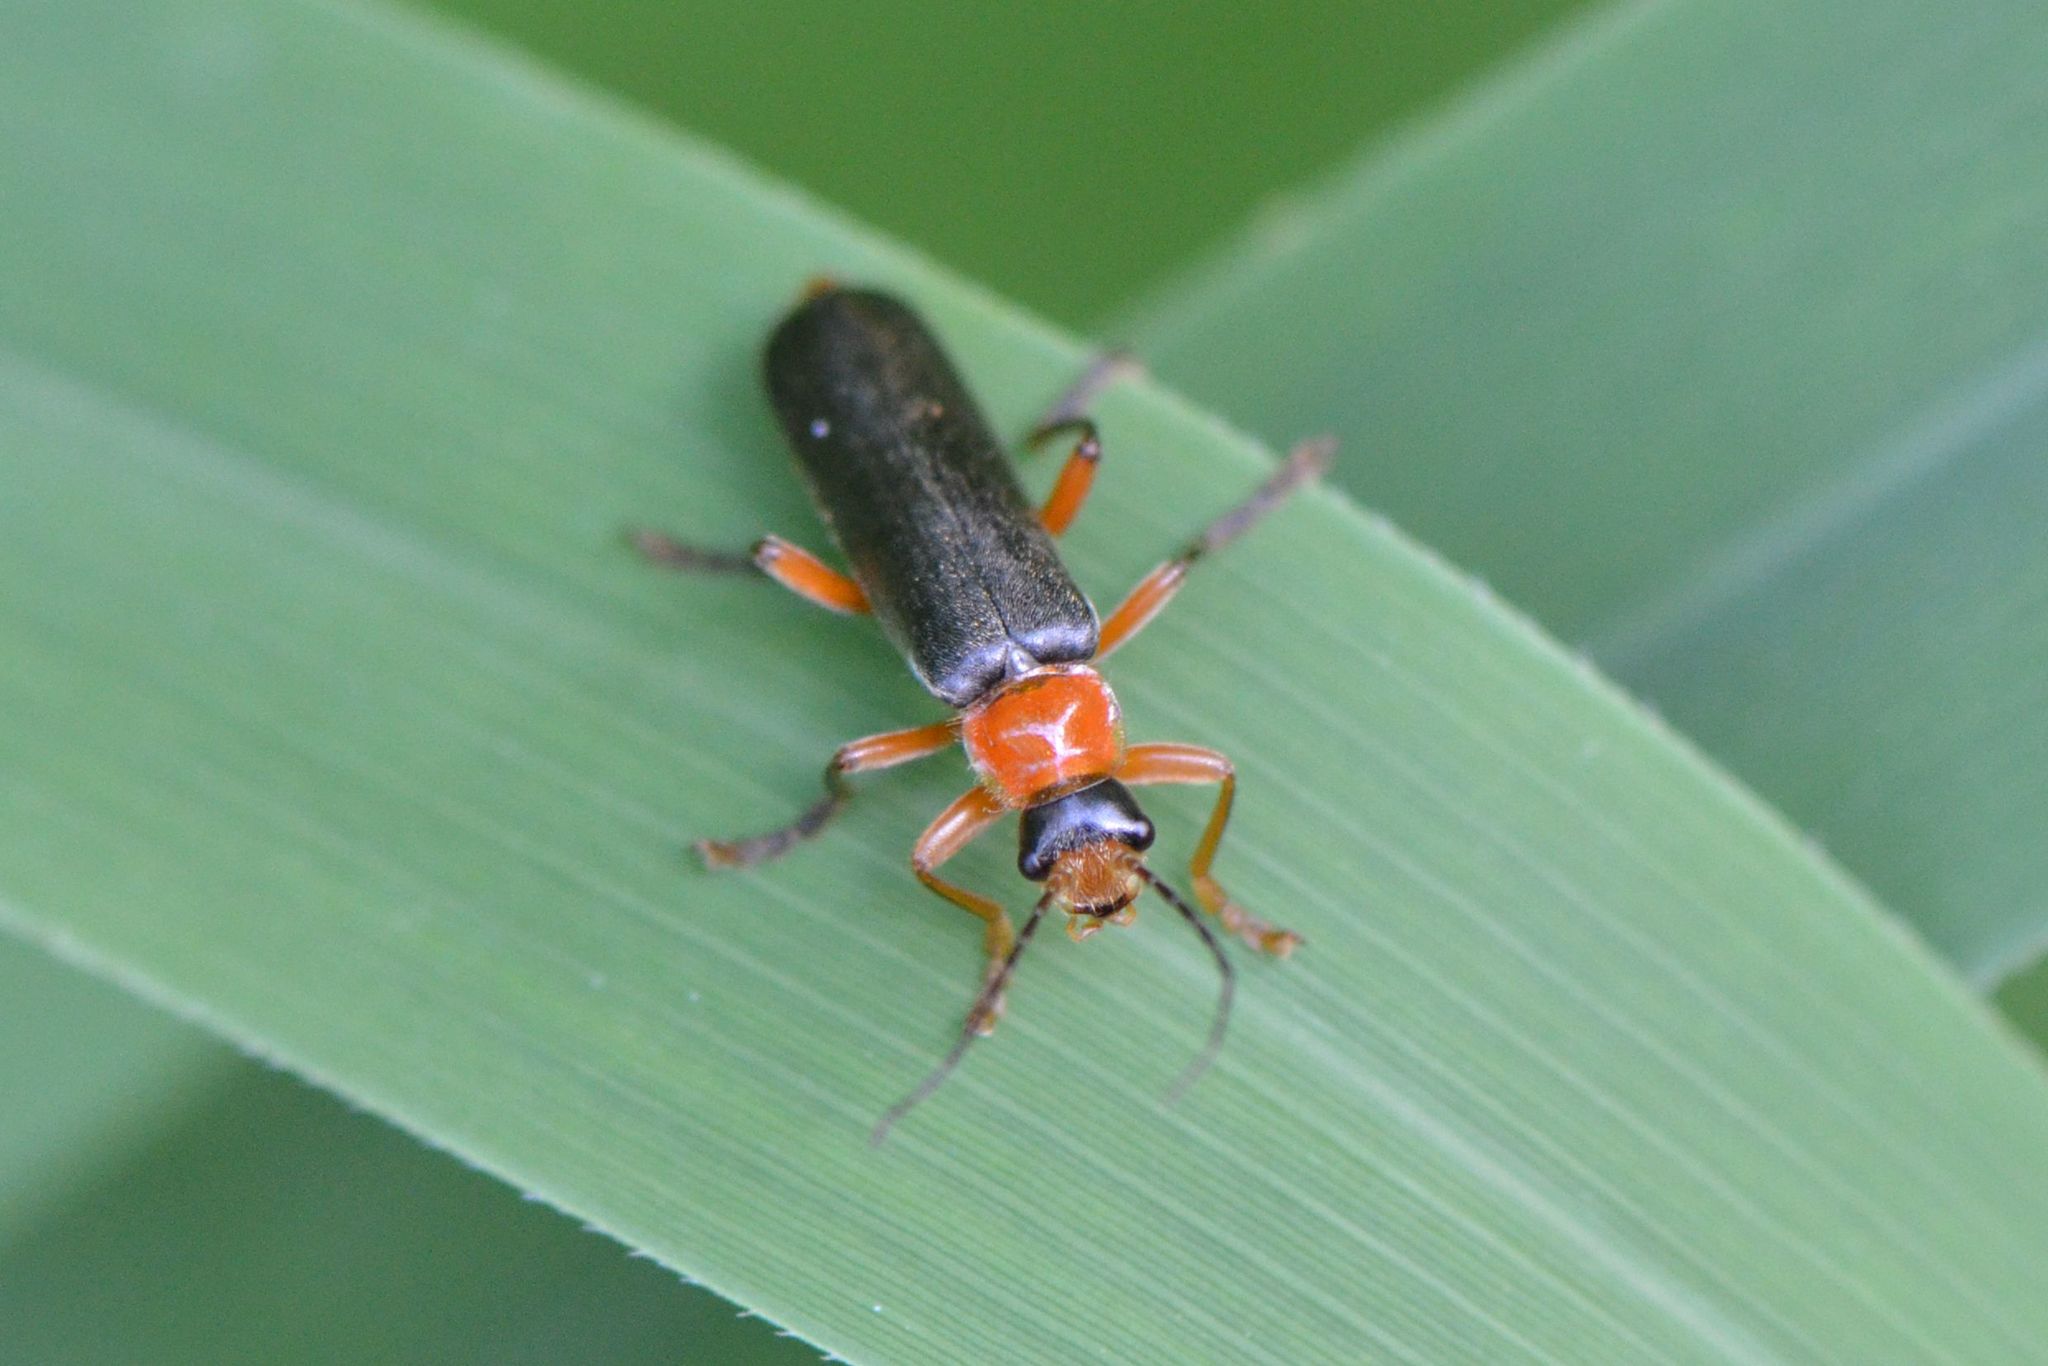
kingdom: Animalia
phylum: Arthropoda
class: Insecta
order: Coleoptera
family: Cantharidae
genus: Cantharis
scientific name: Cantharis pellucida
